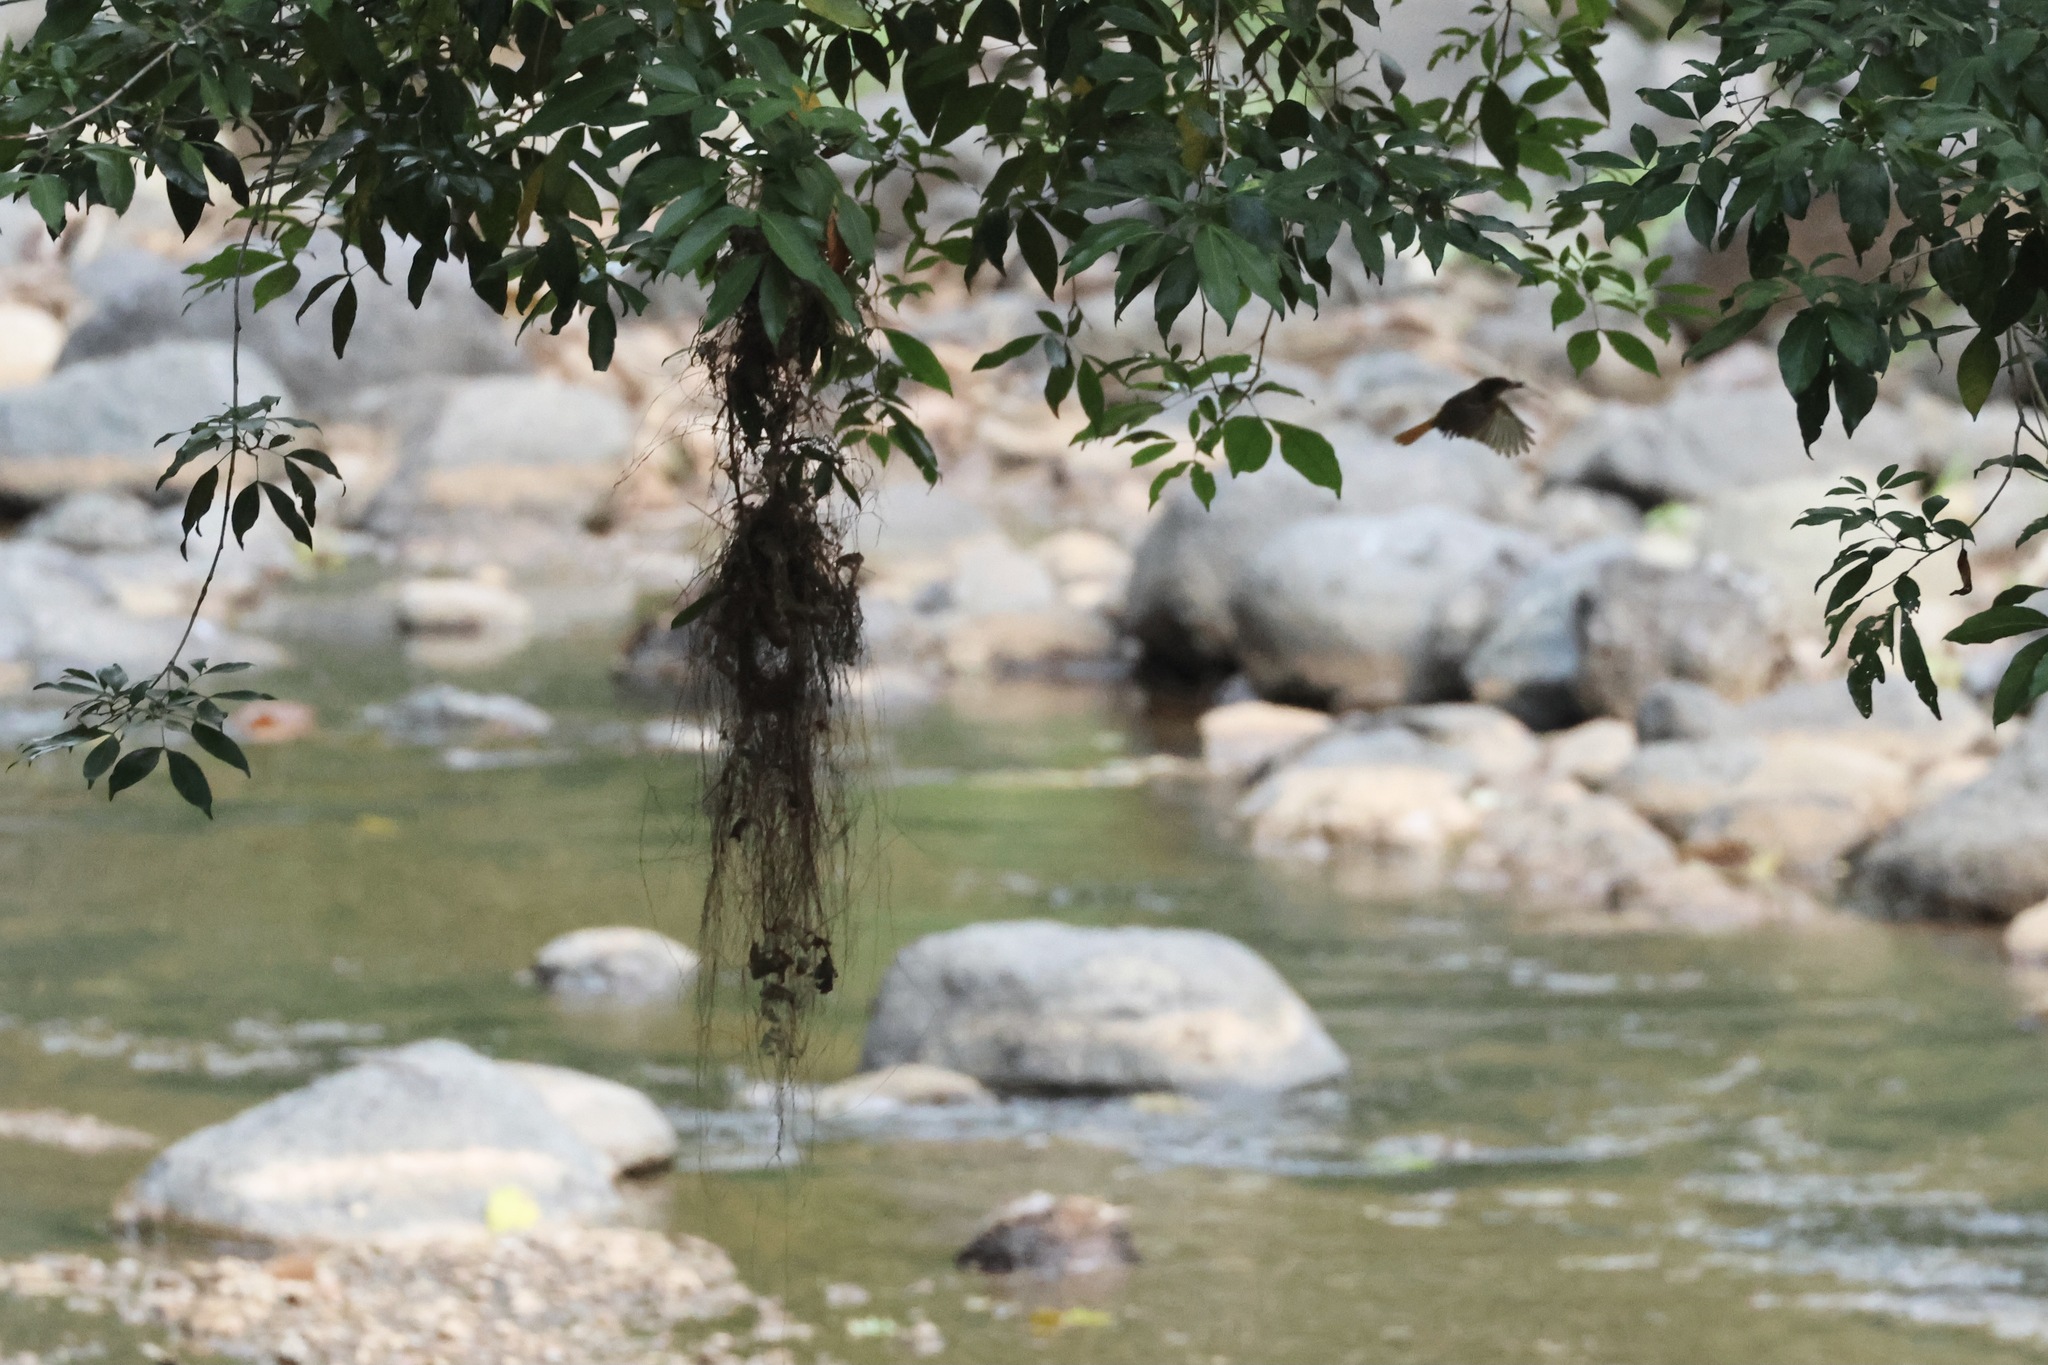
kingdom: Animalia
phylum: Chordata
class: Aves
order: Passeriformes
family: Tyrannidae
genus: Onychorhynchus
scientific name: Onychorhynchus coronatus
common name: Royal flycatcher
